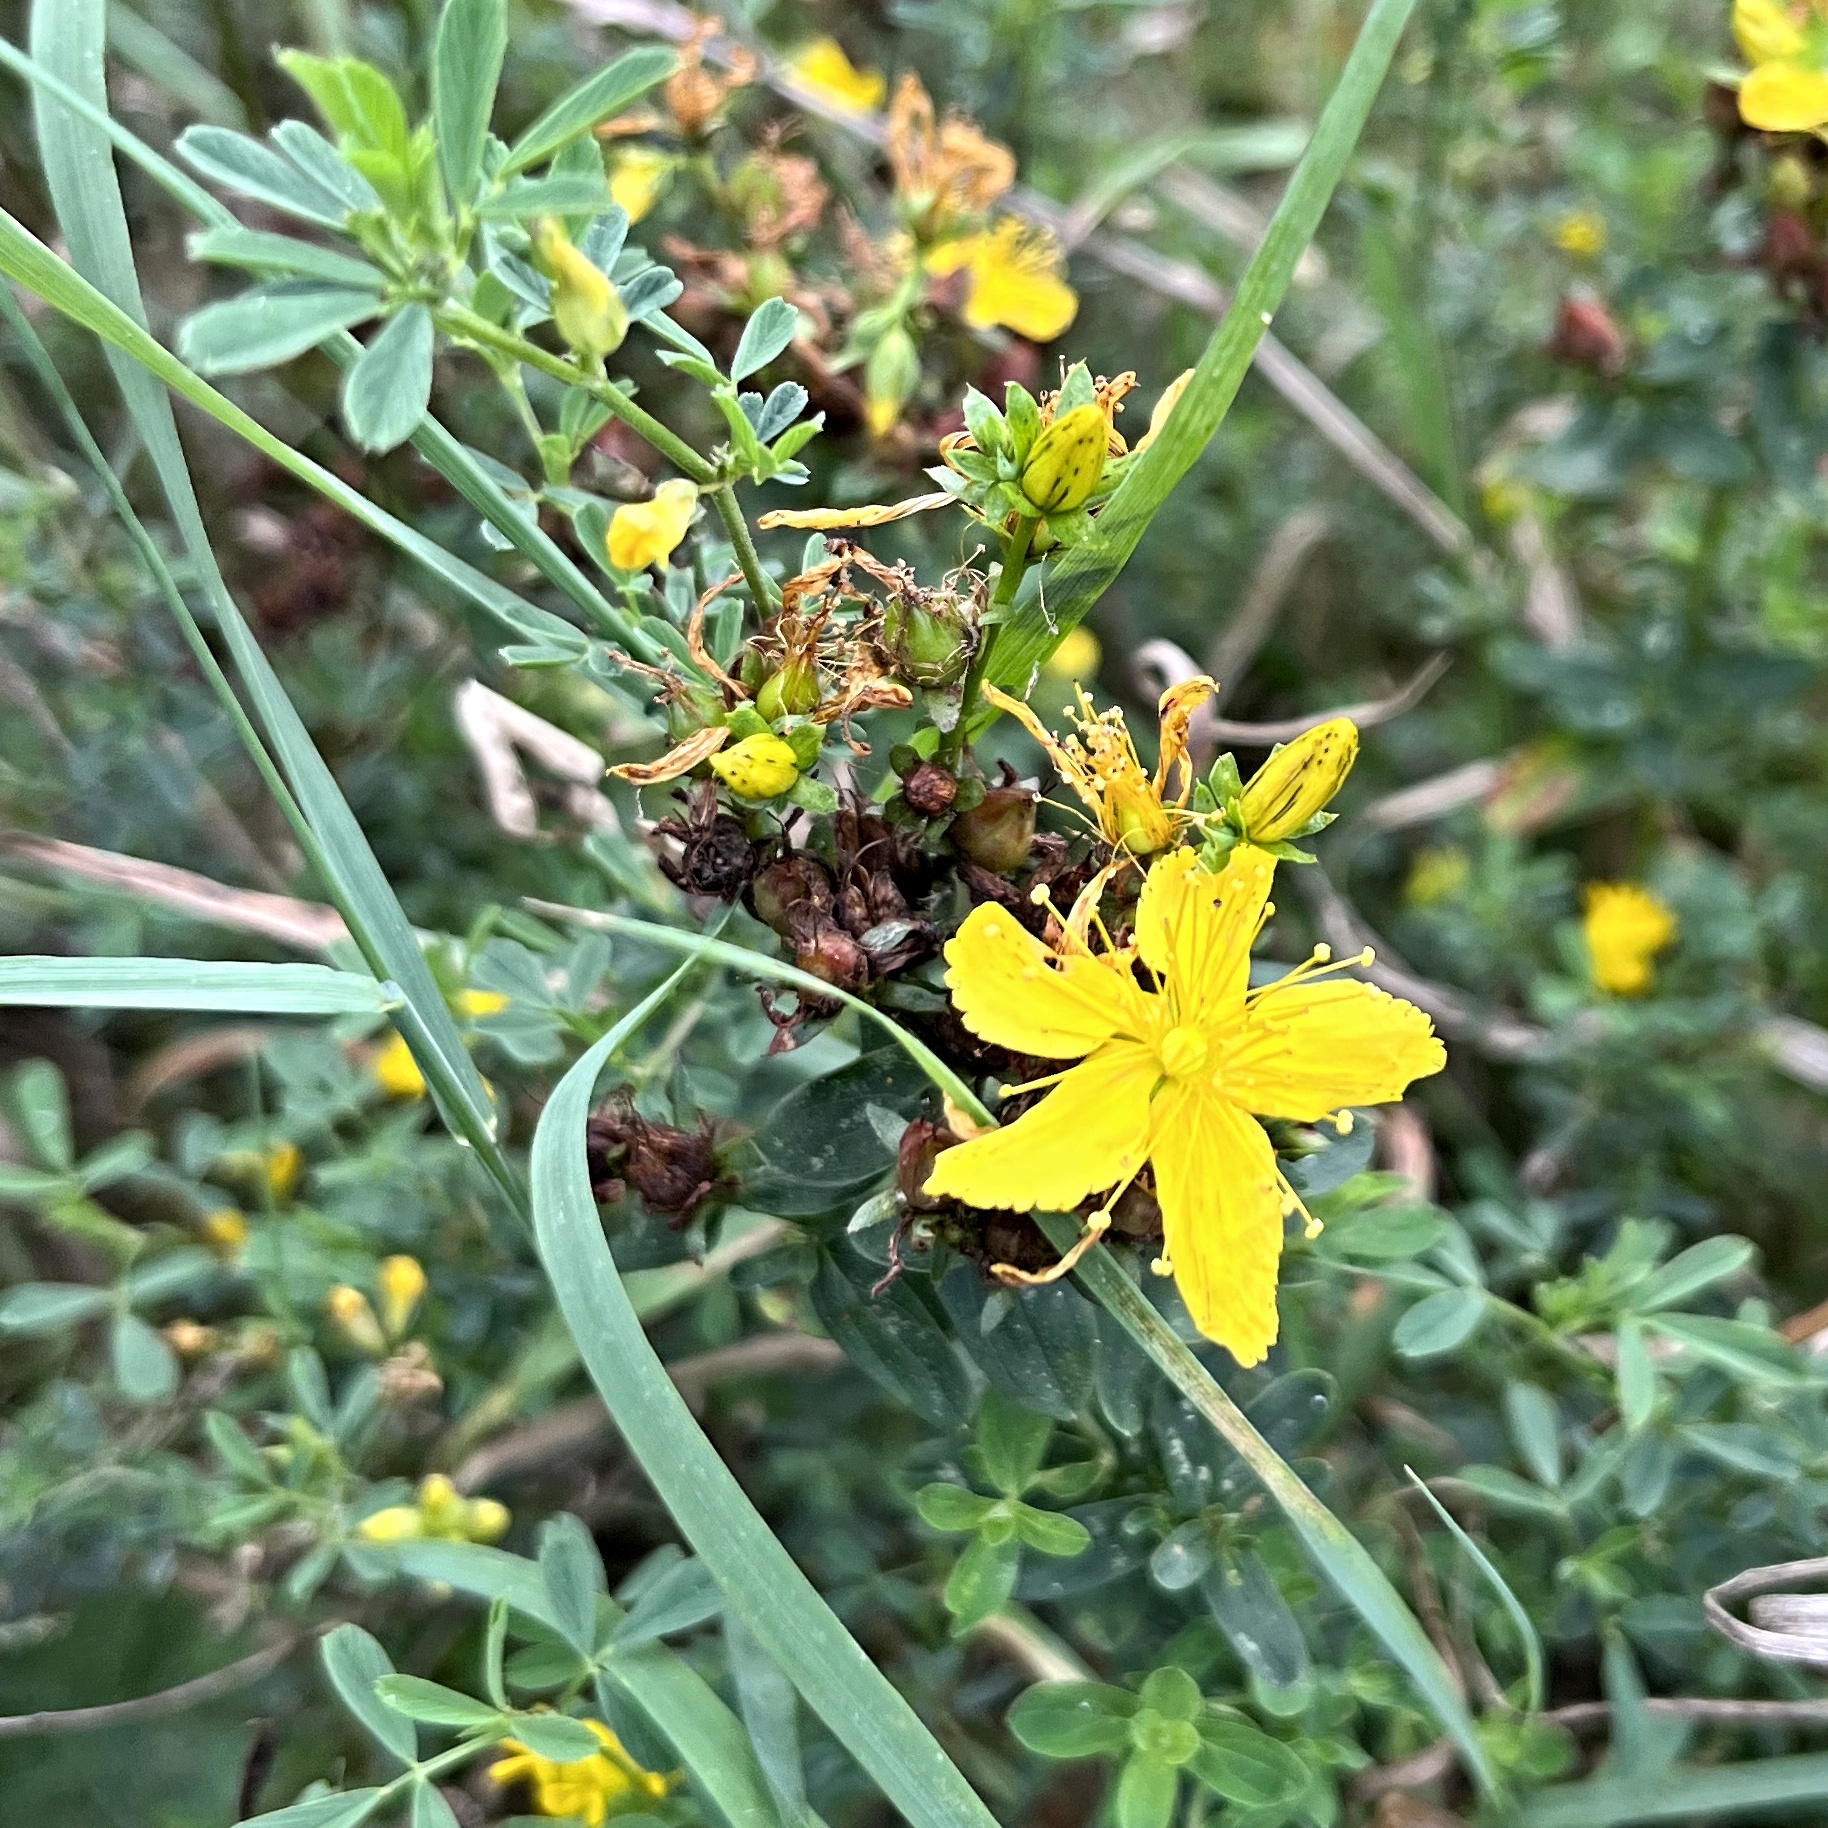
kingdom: Plantae
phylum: Tracheophyta
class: Magnoliopsida
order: Malpighiales
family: Hypericaceae
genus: Hypericum
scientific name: Hypericum perforatum
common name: Common st. johnswort
